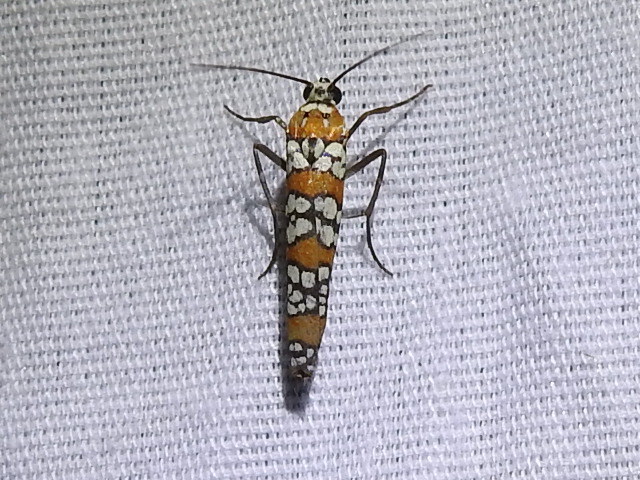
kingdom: Animalia
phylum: Arthropoda
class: Insecta
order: Lepidoptera
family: Attevidae
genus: Atteva
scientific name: Atteva punctella
